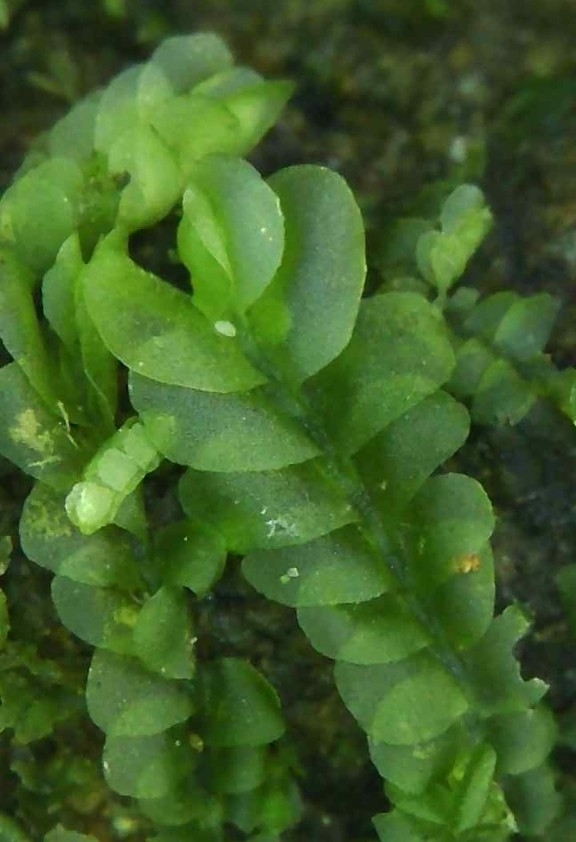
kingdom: Plantae
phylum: Marchantiophyta
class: Jungermanniopsida
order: Jungermanniales
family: Lophocoleaceae
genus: Chiloscyphus
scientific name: Chiloscyphus polyanthos
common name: Square-leaved crestwort
